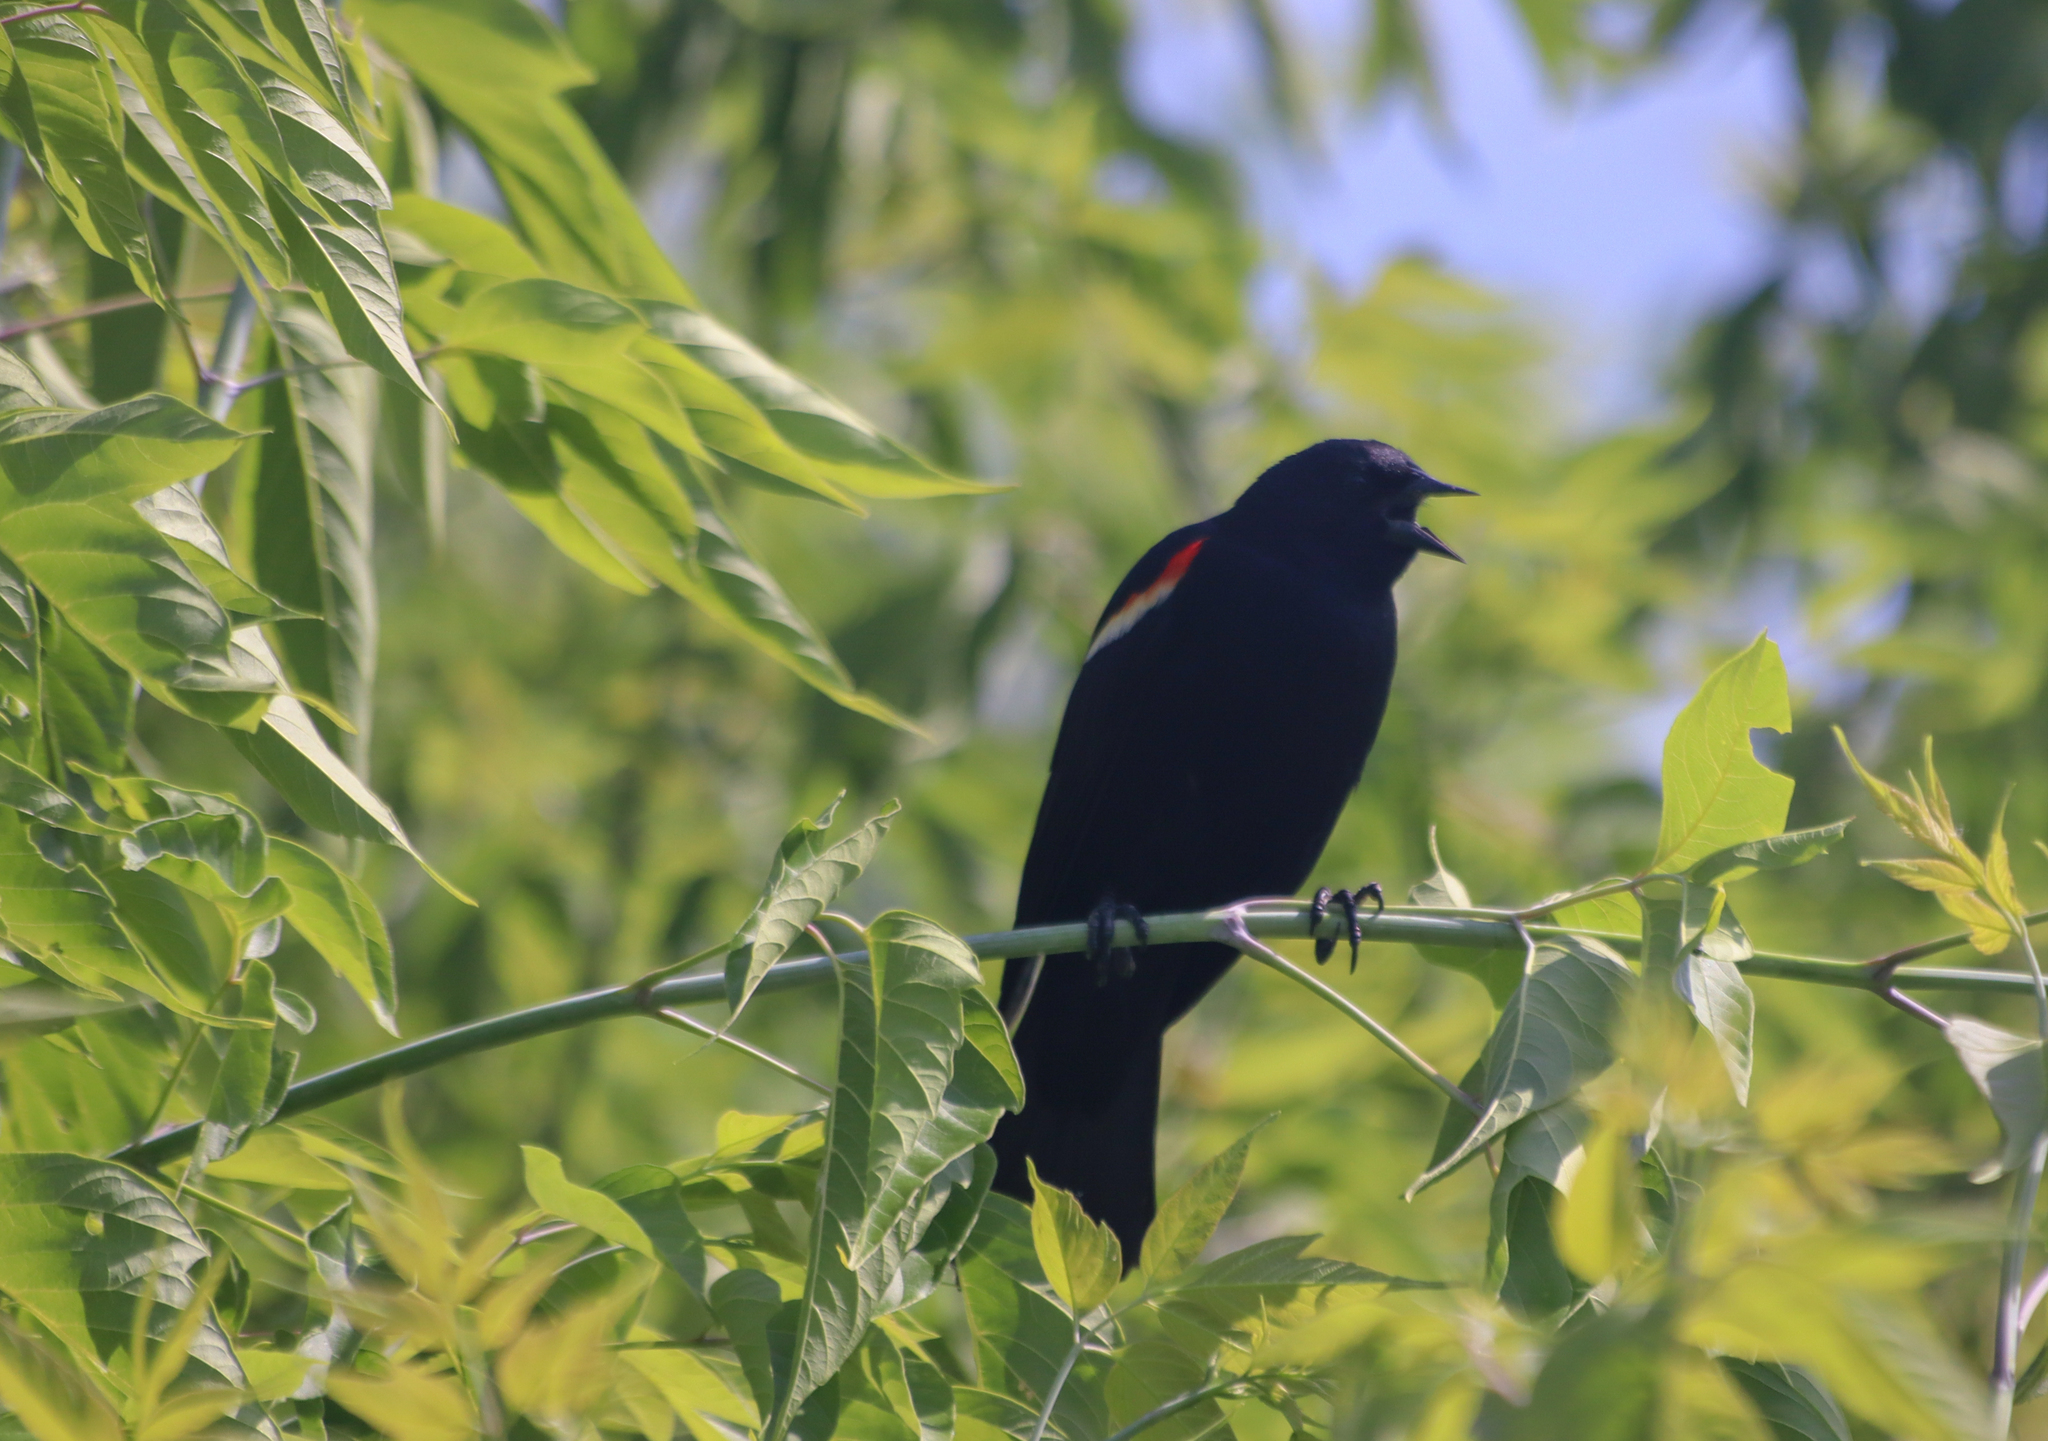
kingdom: Animalia
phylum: Chordata
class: Aves
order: Passeriformes
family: Icteridae
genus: Agelaius
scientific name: Agelaius phoeniceus
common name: Red-winged blackbird
